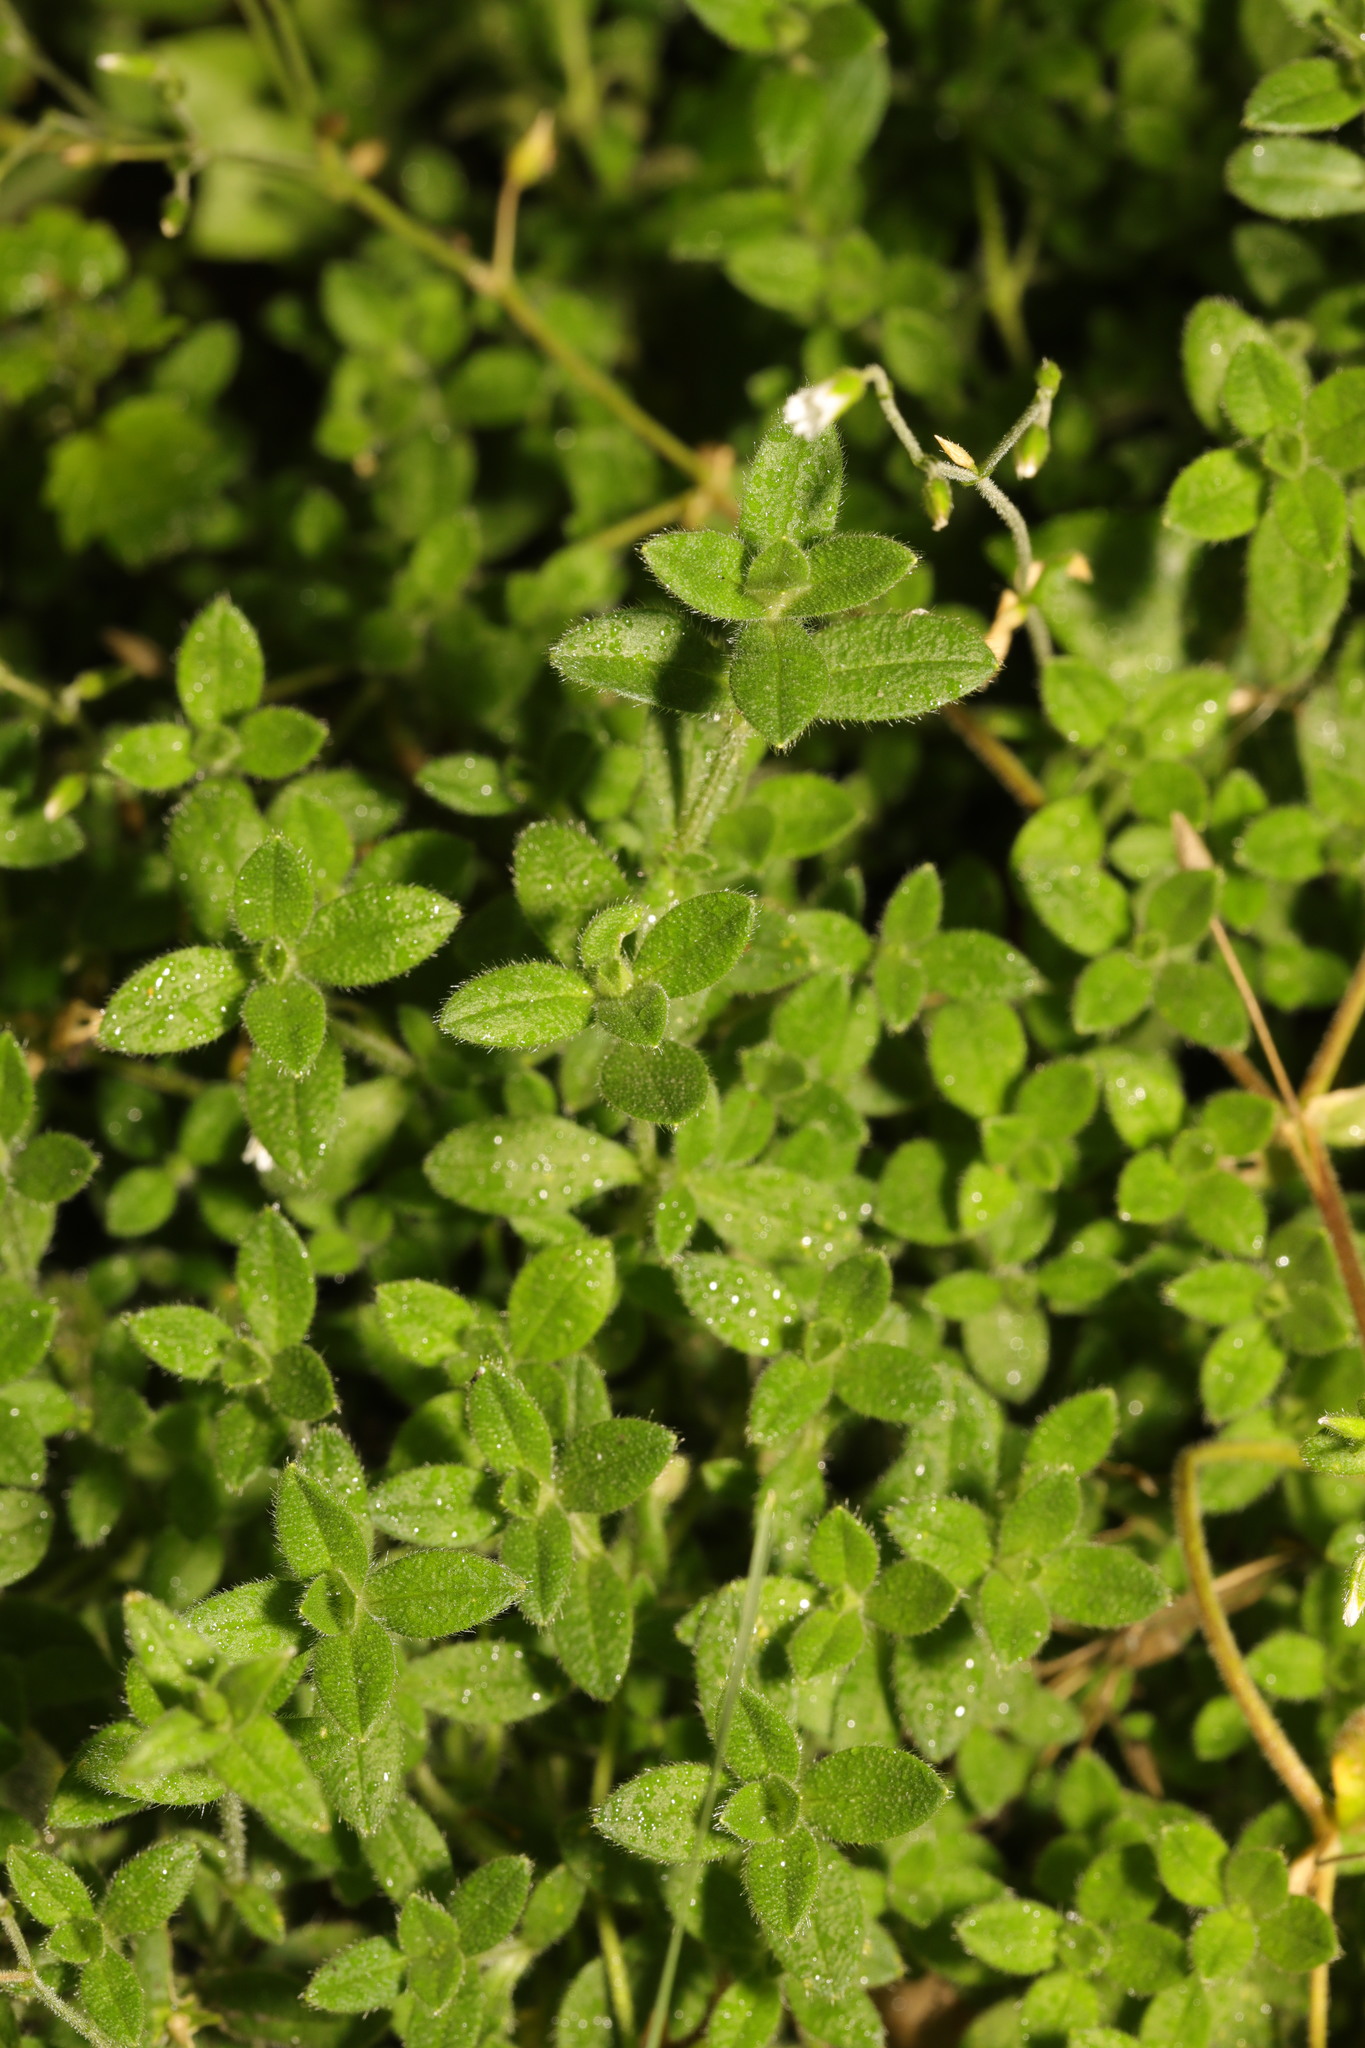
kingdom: Plantae
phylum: Tracheophyta
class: Magnoliopsida
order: Caryophyllales
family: Caryophyllaceae
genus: Cerastium
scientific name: Cerastium fontanum
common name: Common mouse-ear
